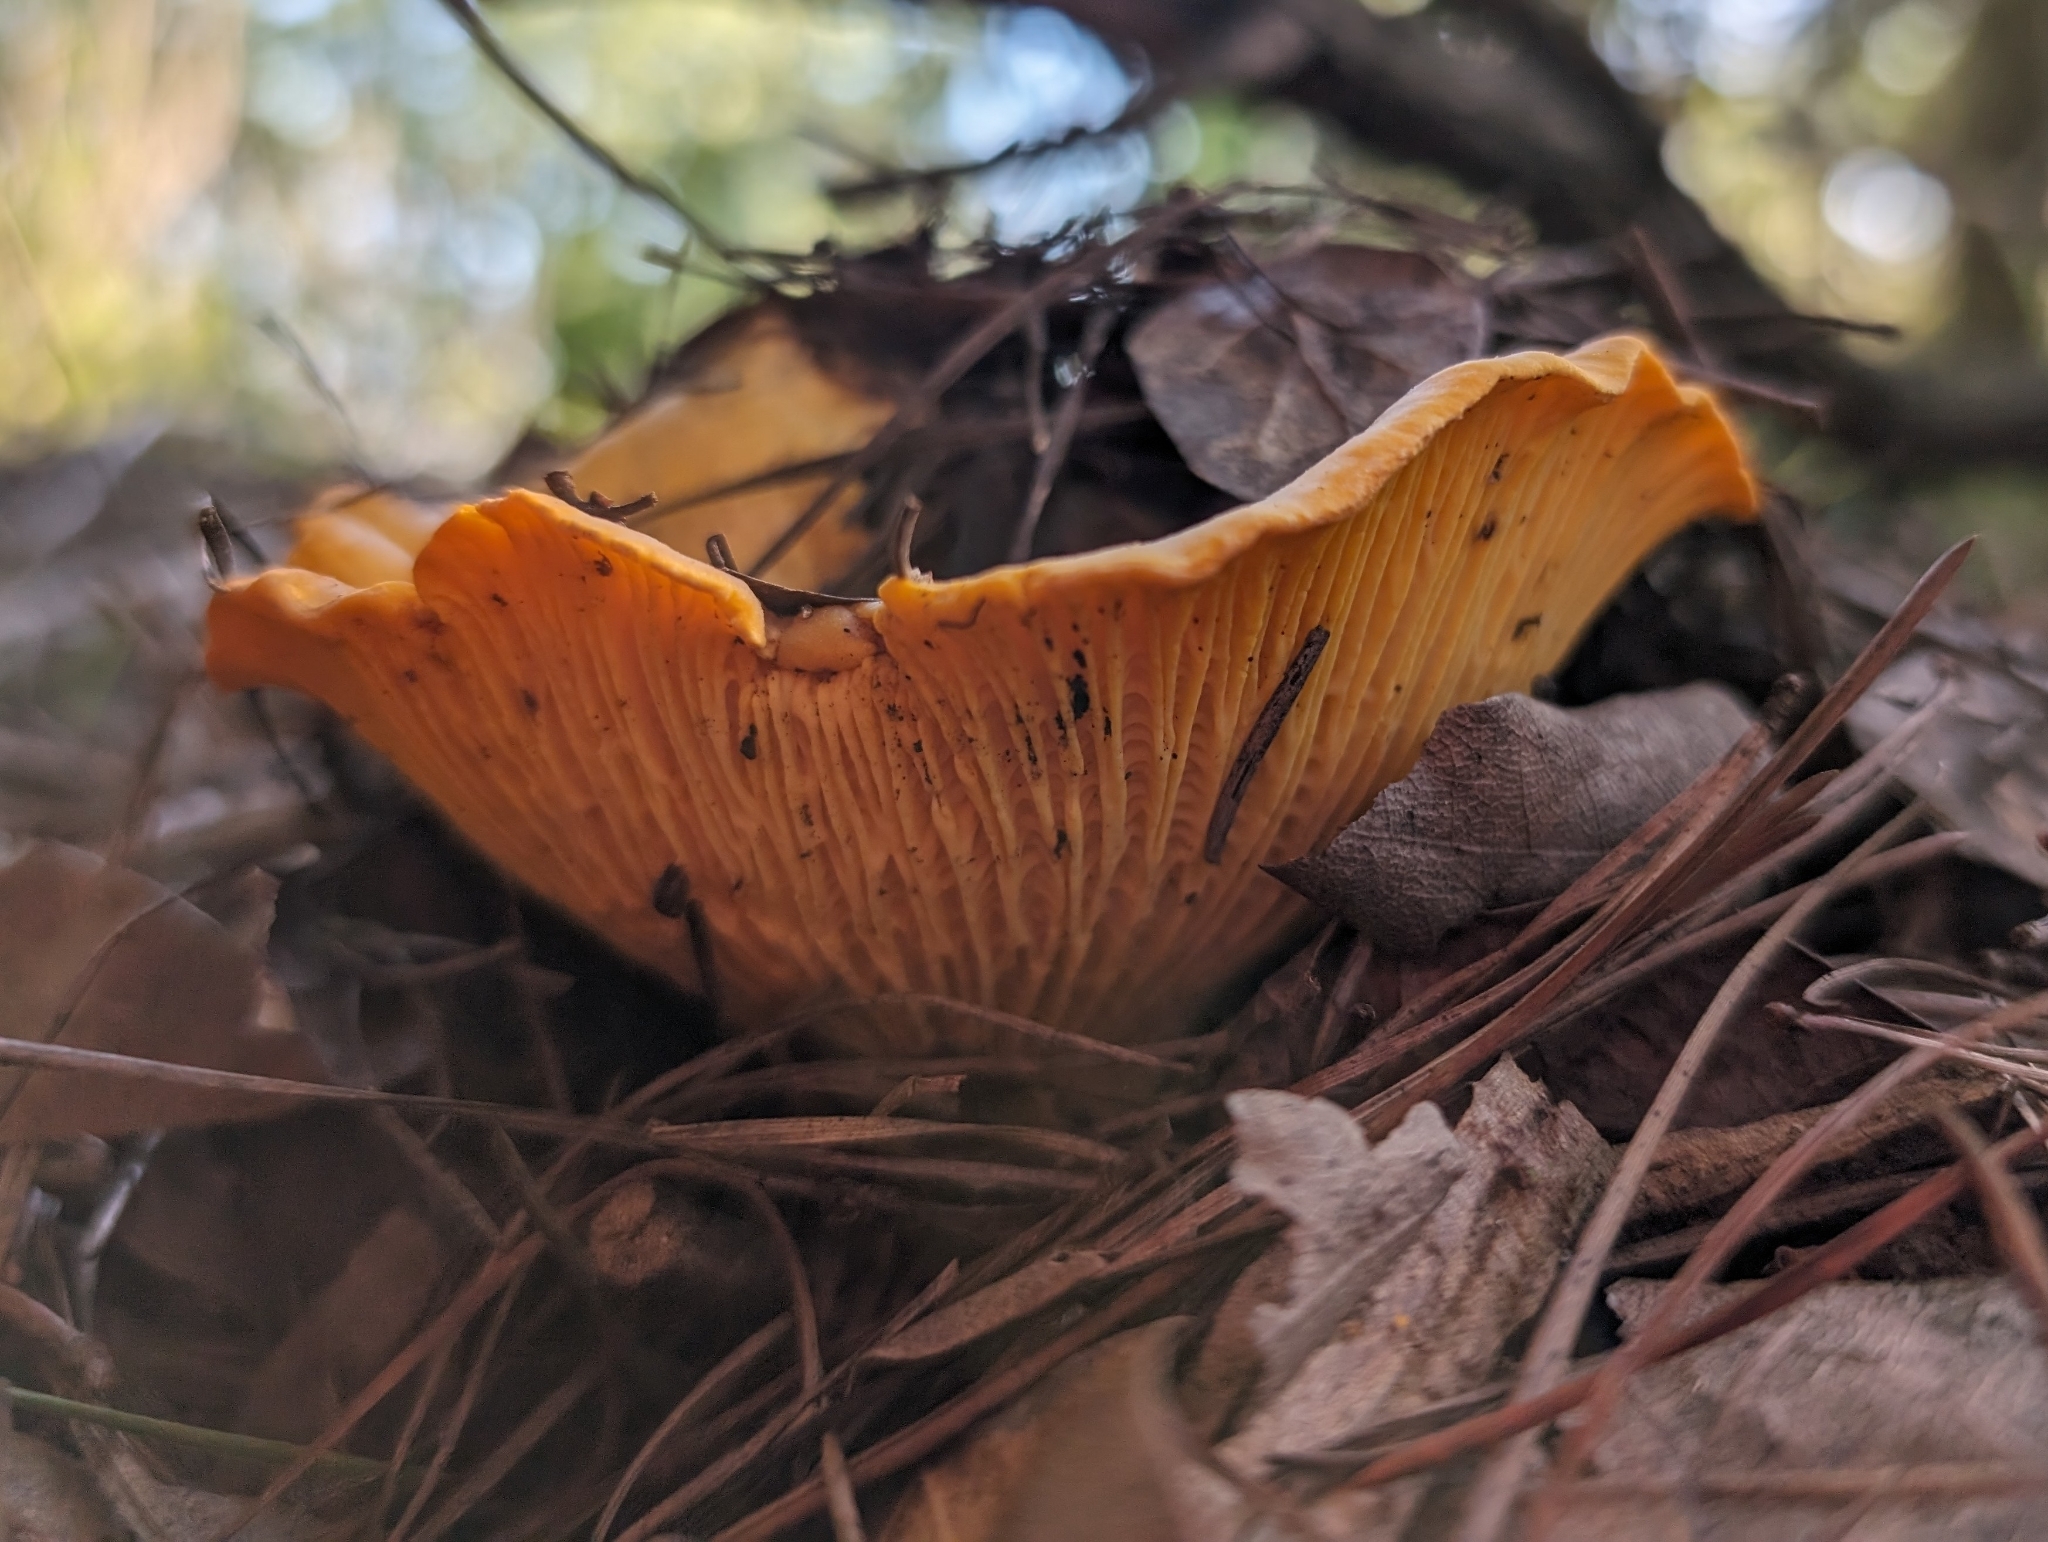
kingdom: Fungi
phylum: Basidiomycota
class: Agaricomycetes
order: Cantharellales
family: Hydnaceae
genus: Cantharellus
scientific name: Cantharellus californicus
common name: California golden chanterelle
